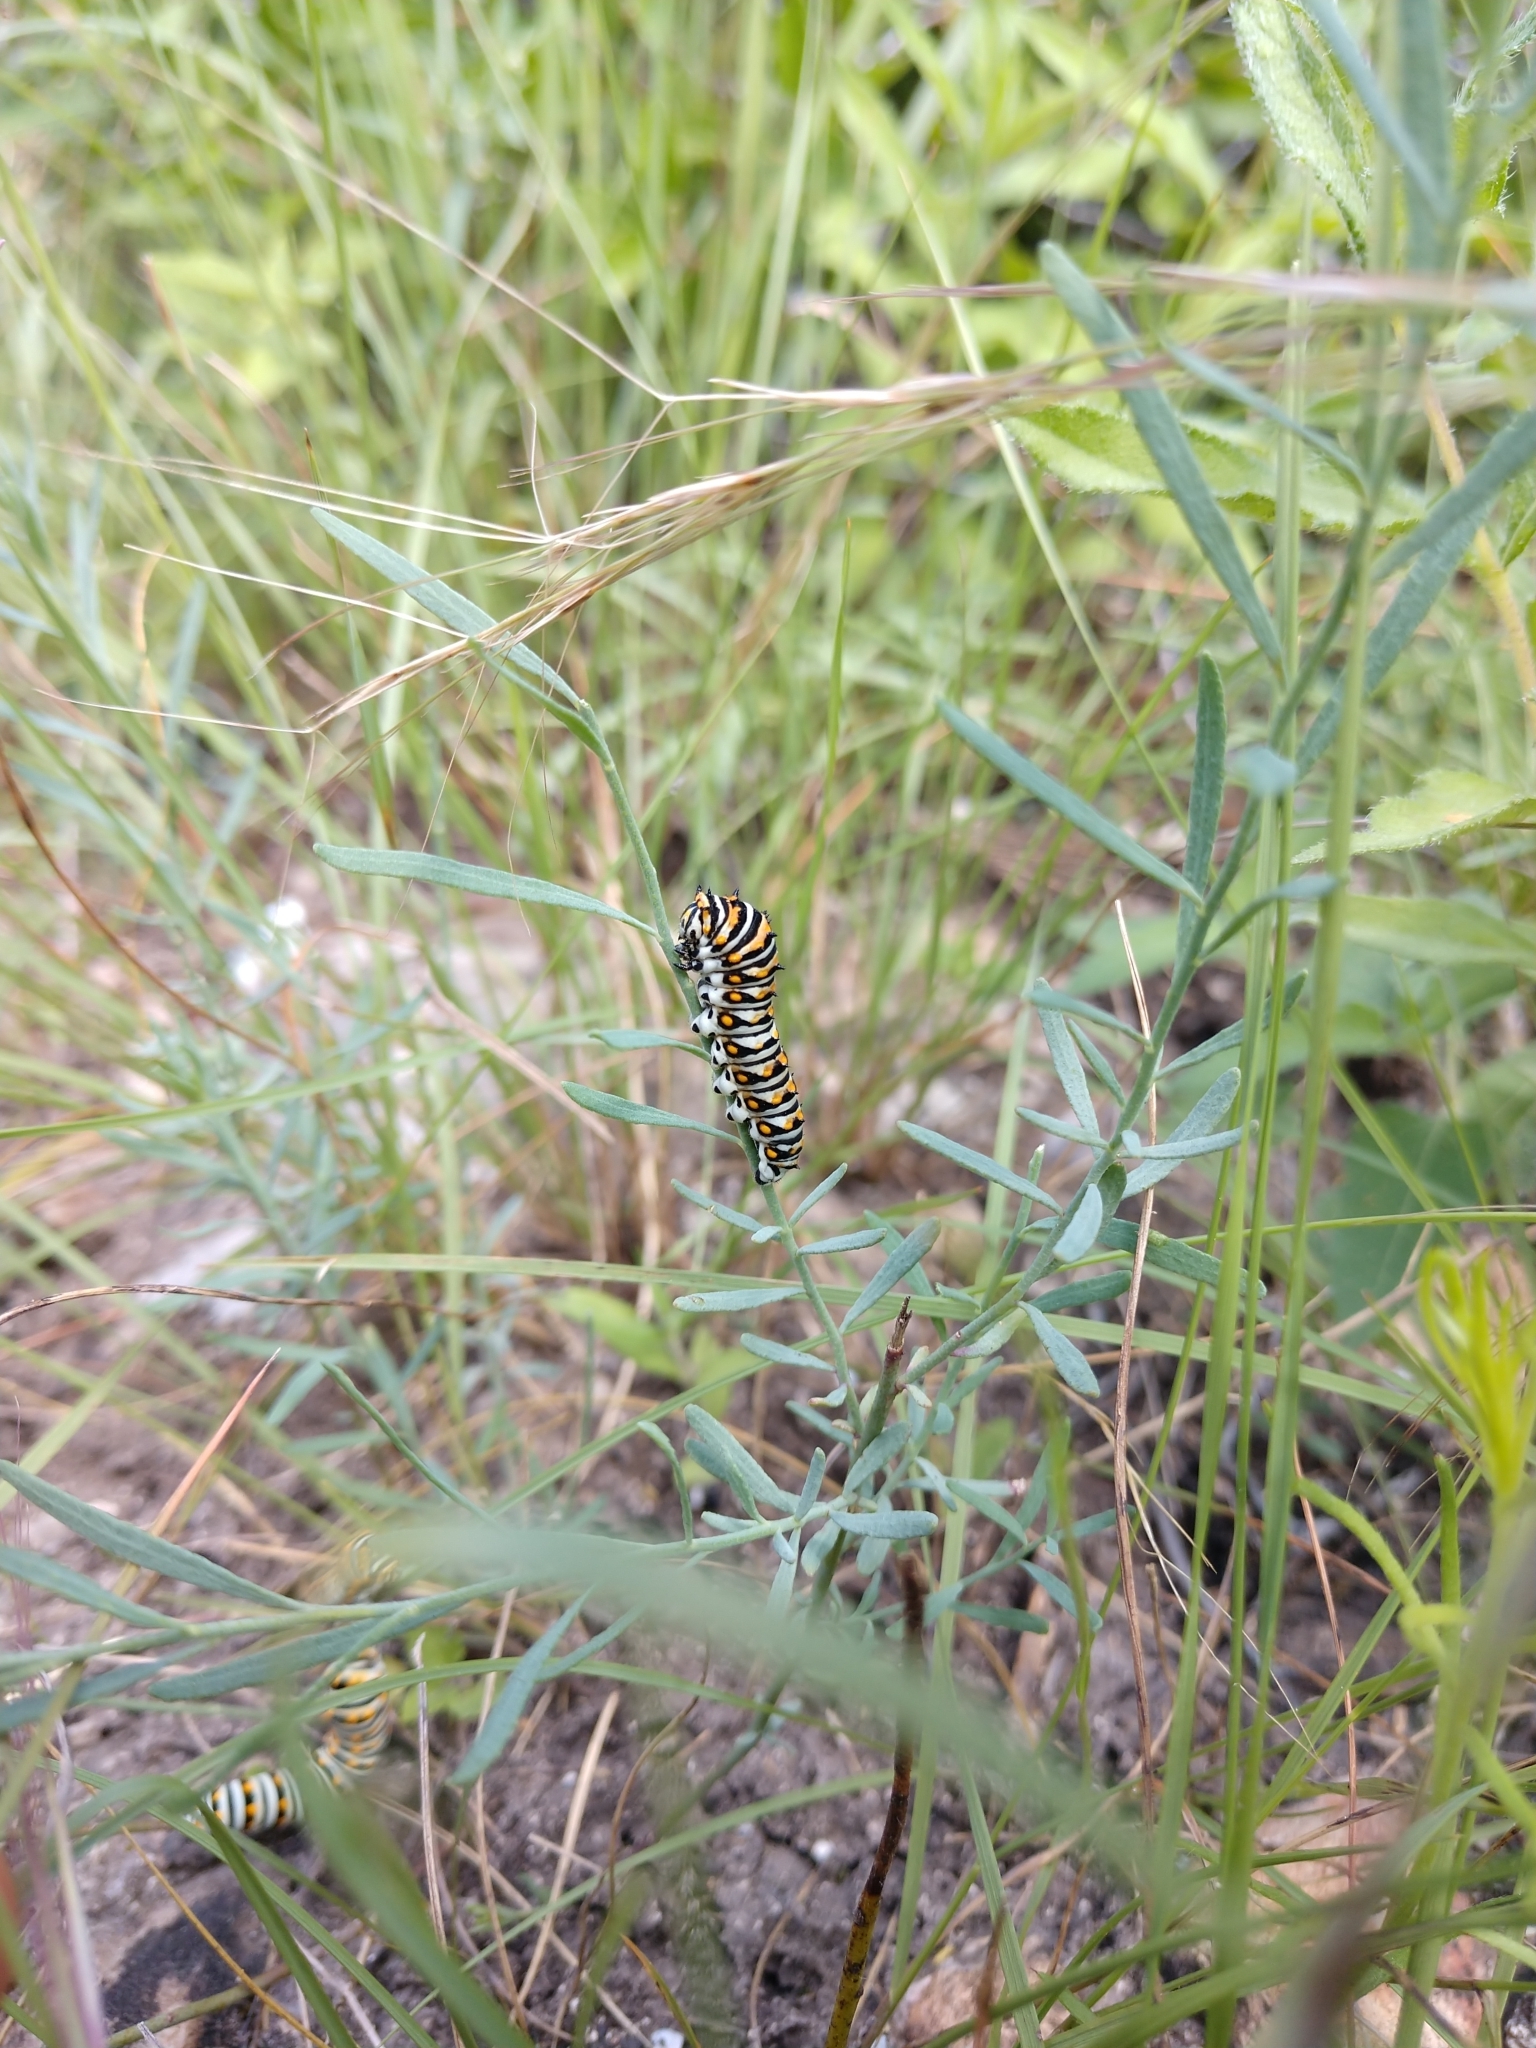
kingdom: Animalia
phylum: Arthropoda
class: Insecta
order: Lepidoptera
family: Papilionidae
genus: Papilio
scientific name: Papilio polyxenes
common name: Black swallowtail
